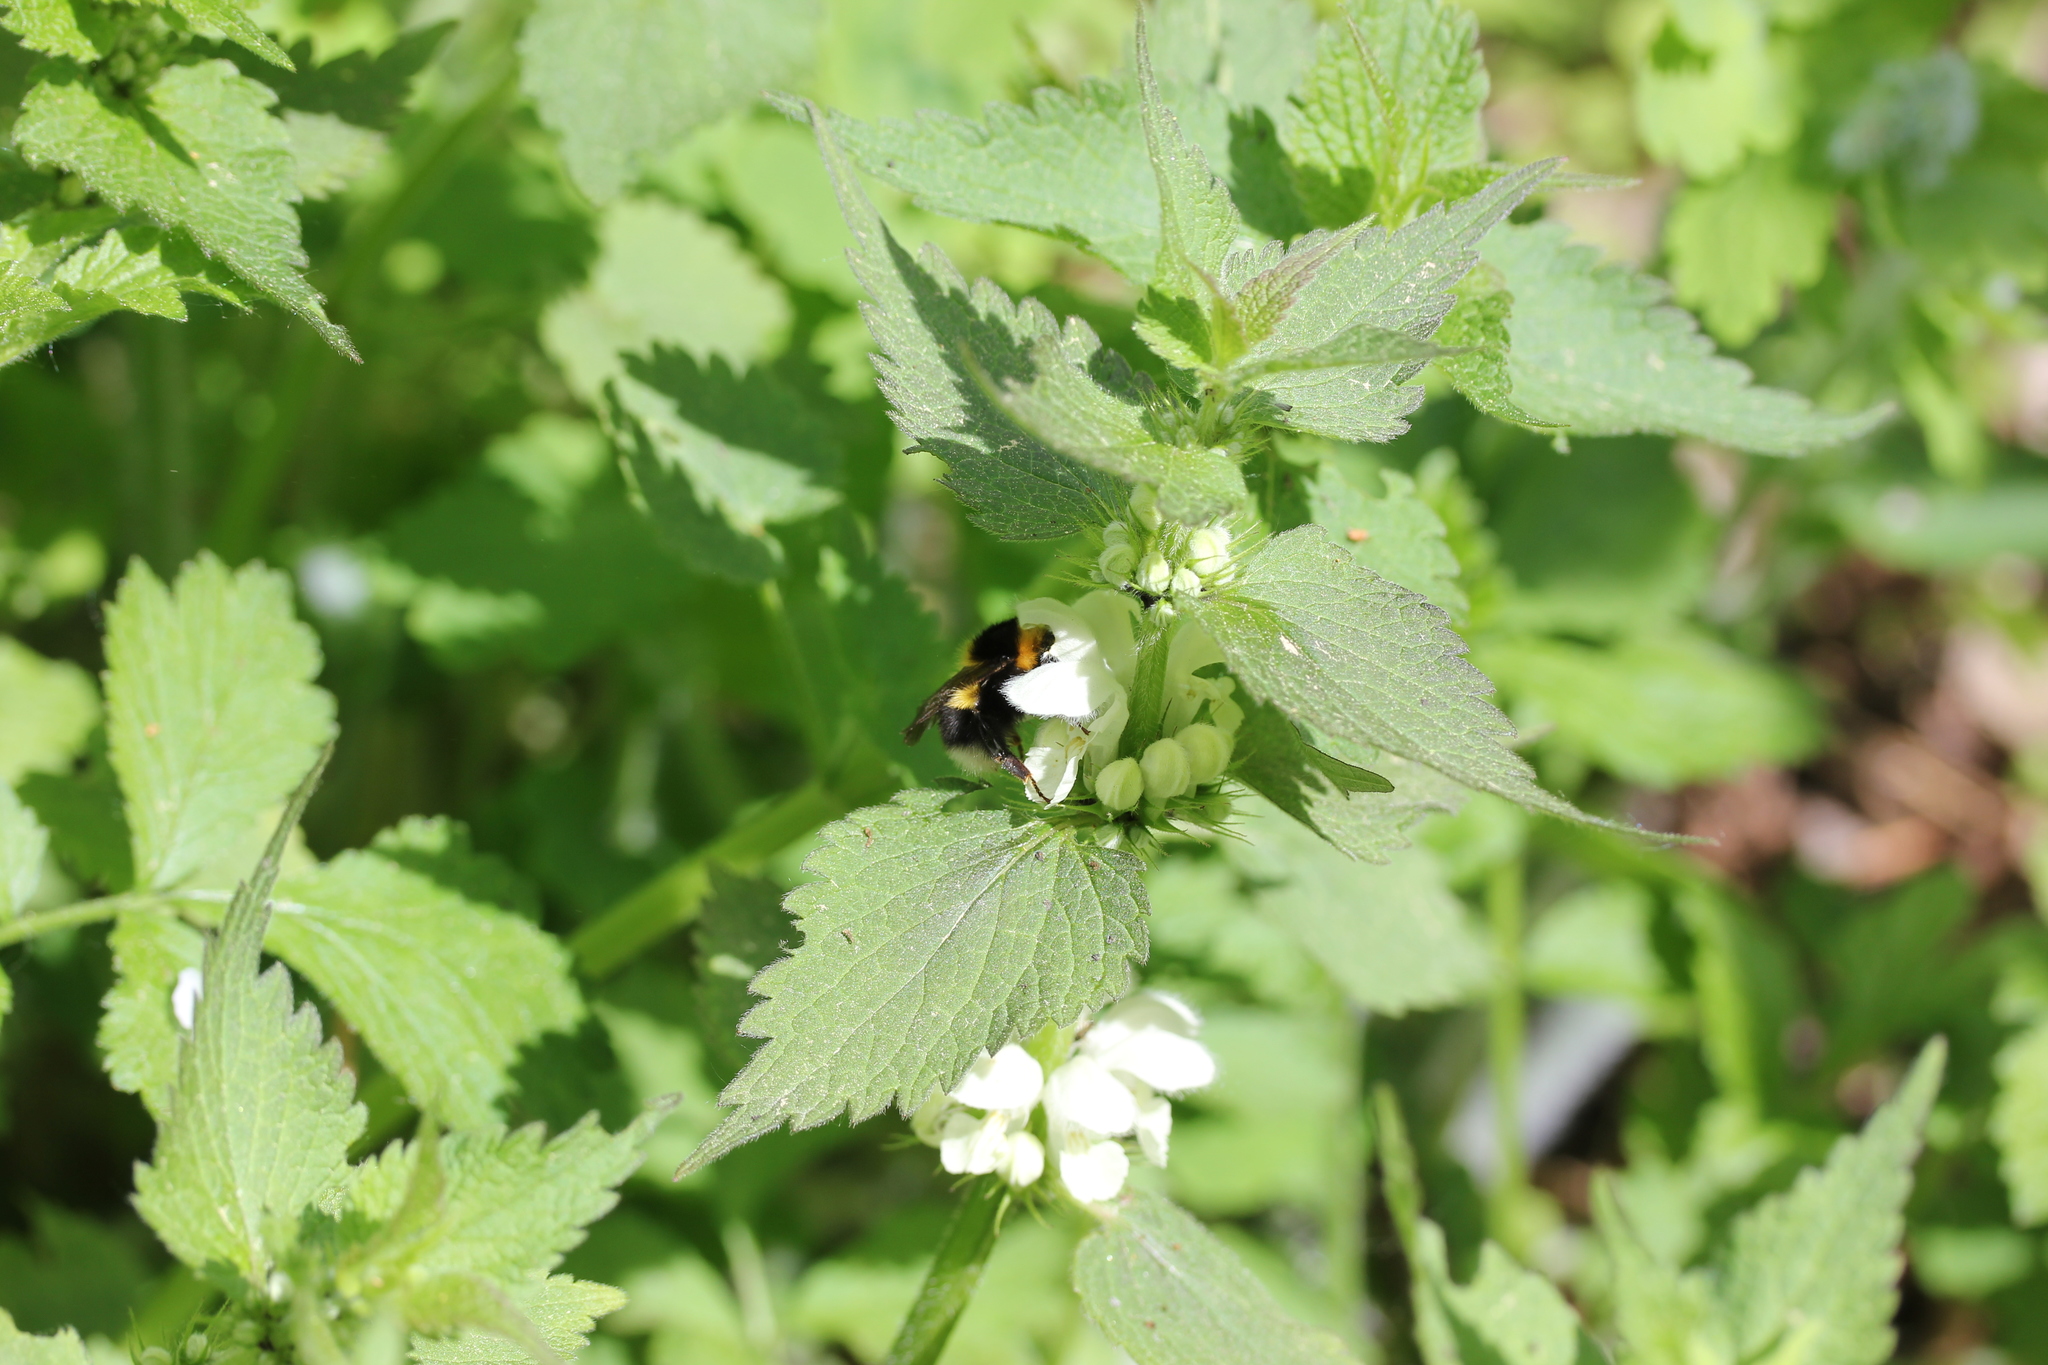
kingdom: Plantae
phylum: Tracheophyta
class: Magnoliopsida
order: Lamiales
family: Lamiaceae
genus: Lamium
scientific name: Lamium album
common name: White dead-nettle
